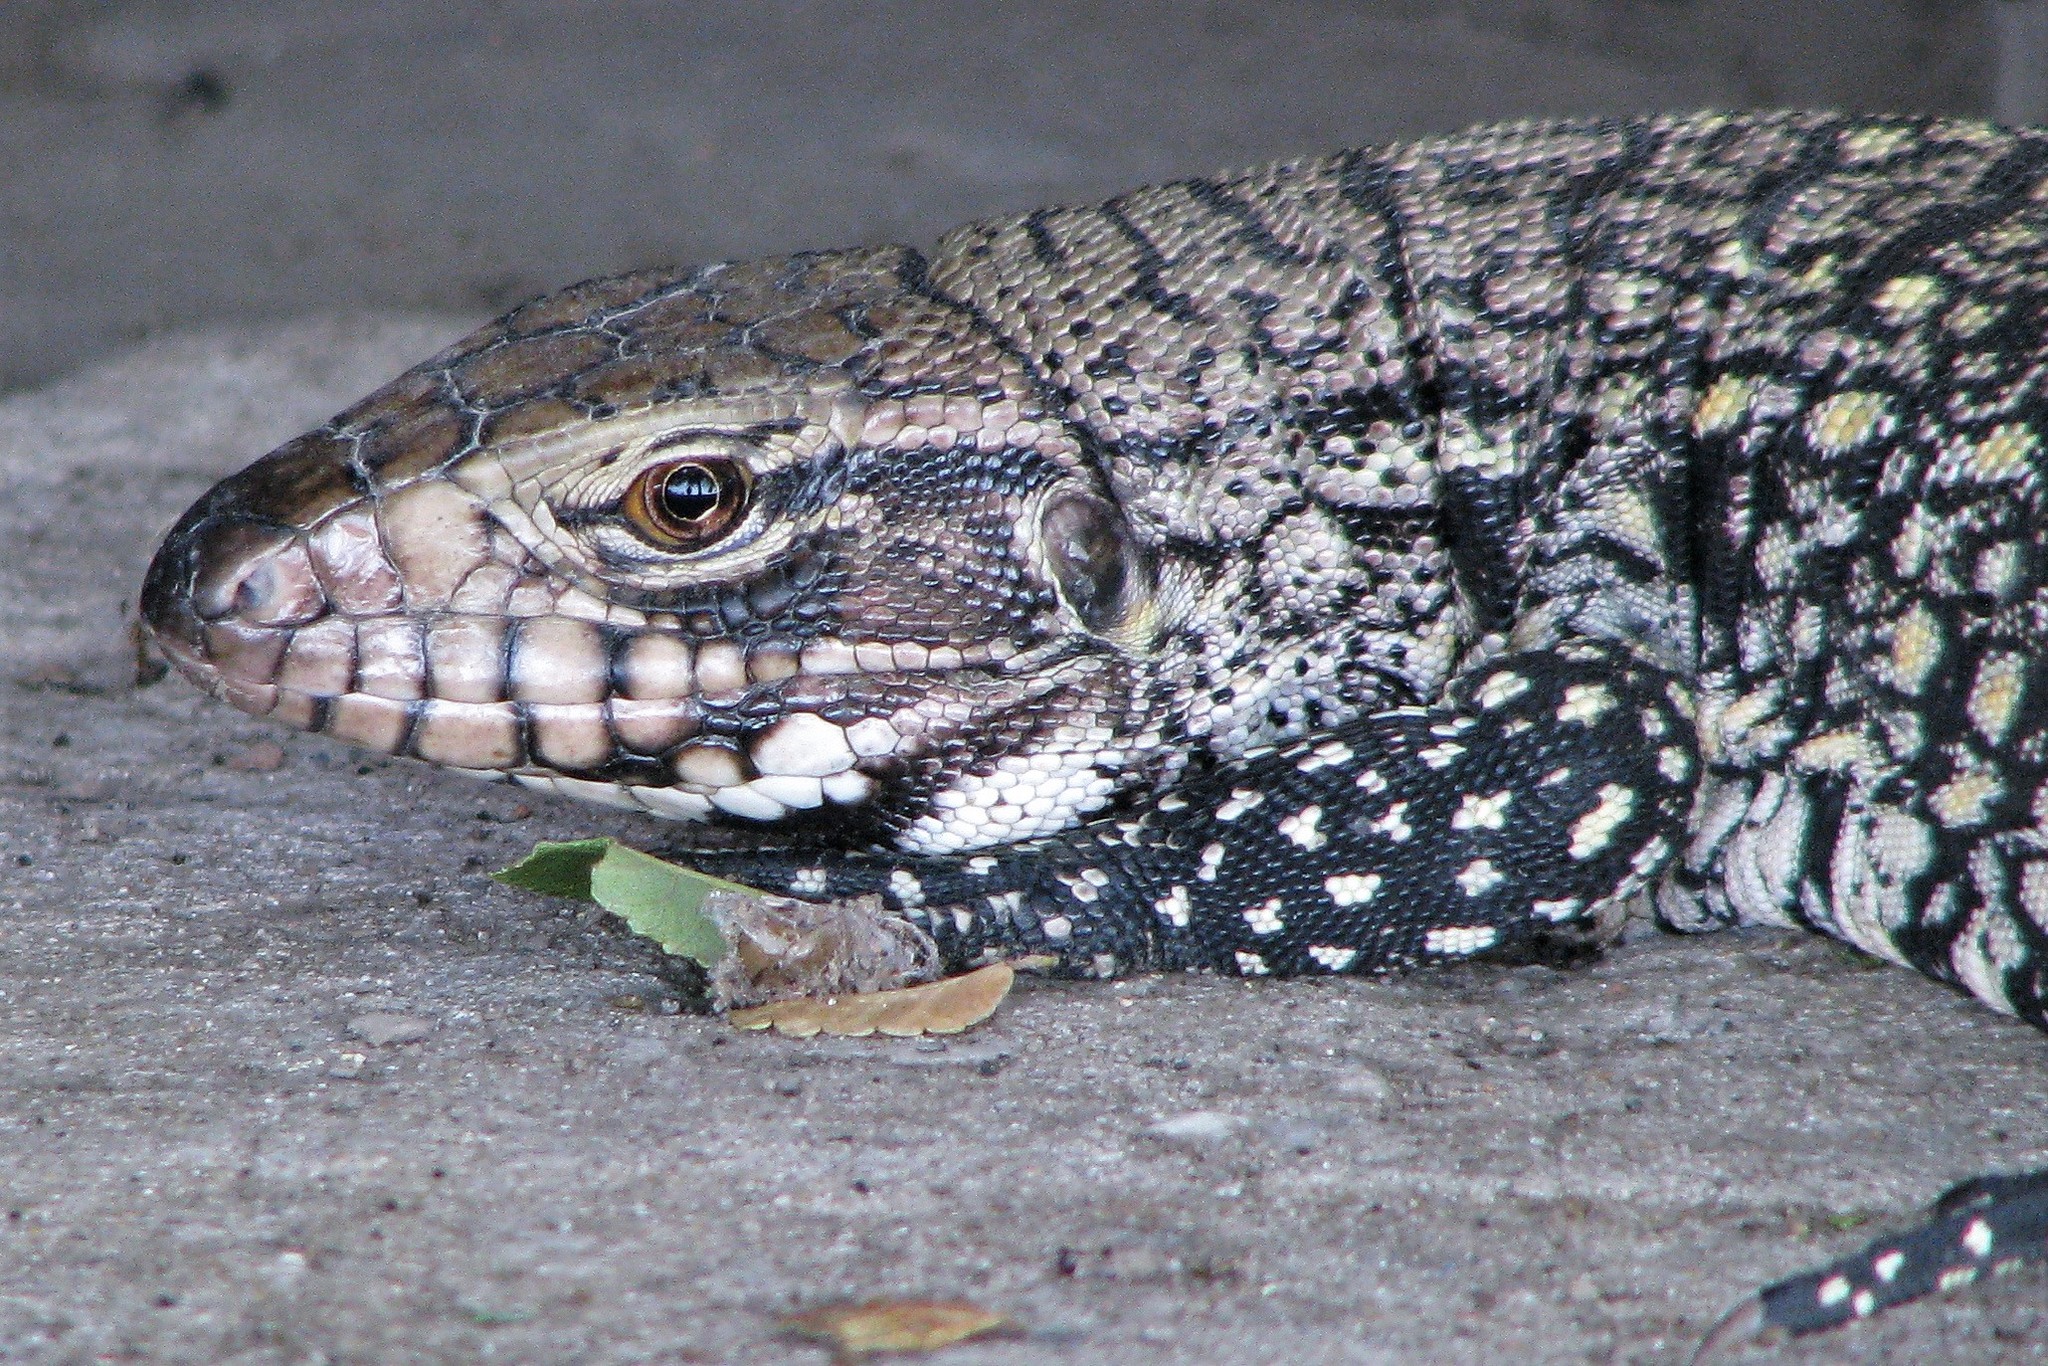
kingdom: Animalia
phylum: Chordata
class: Squamata
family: Teiidae
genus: Salvator
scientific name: Salvator merianae
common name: Argentine black and white tegu
